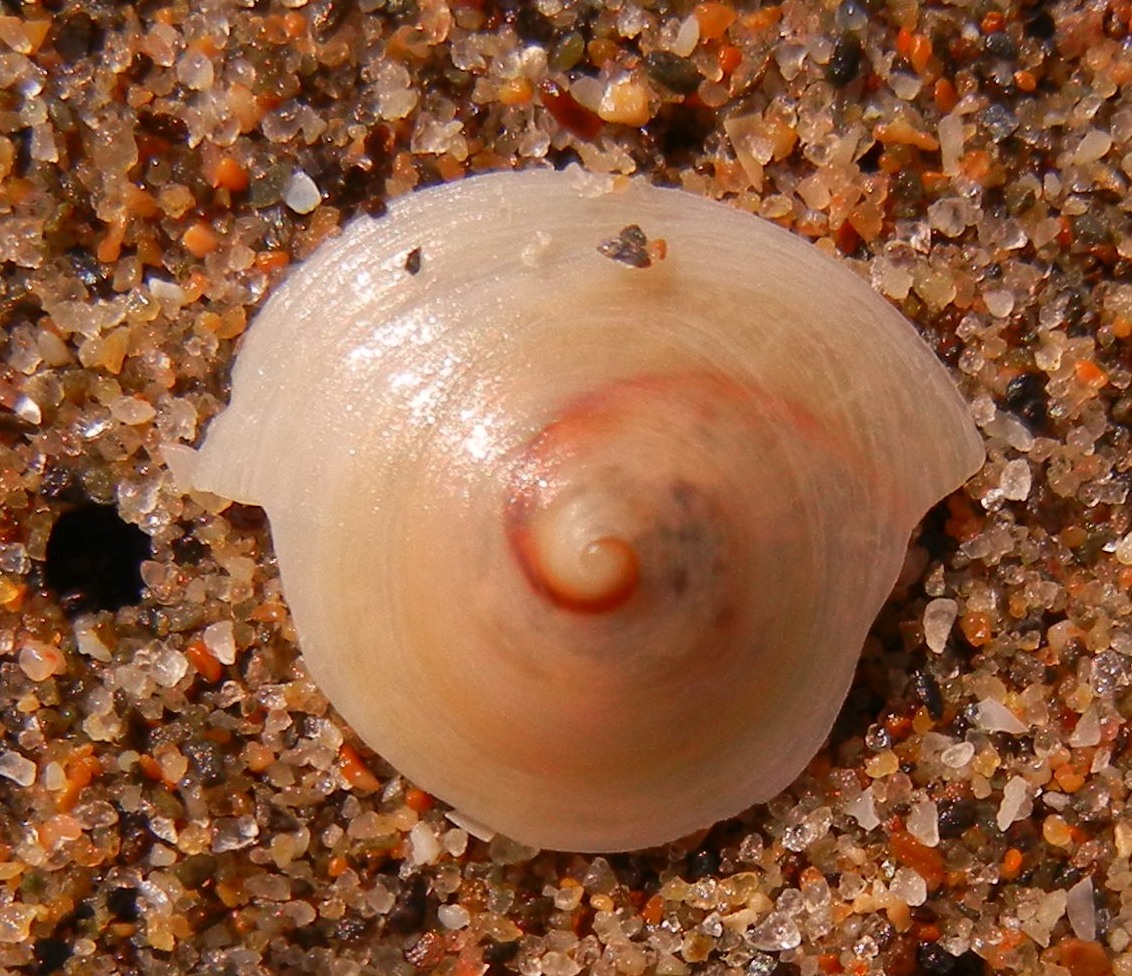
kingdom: Animalia
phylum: Mollusca
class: Gastropoda
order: Littorinimorpha
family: Calyptraeidae
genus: Calyptraea
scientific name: Calyptraea chinensis
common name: Chinaman's hat
